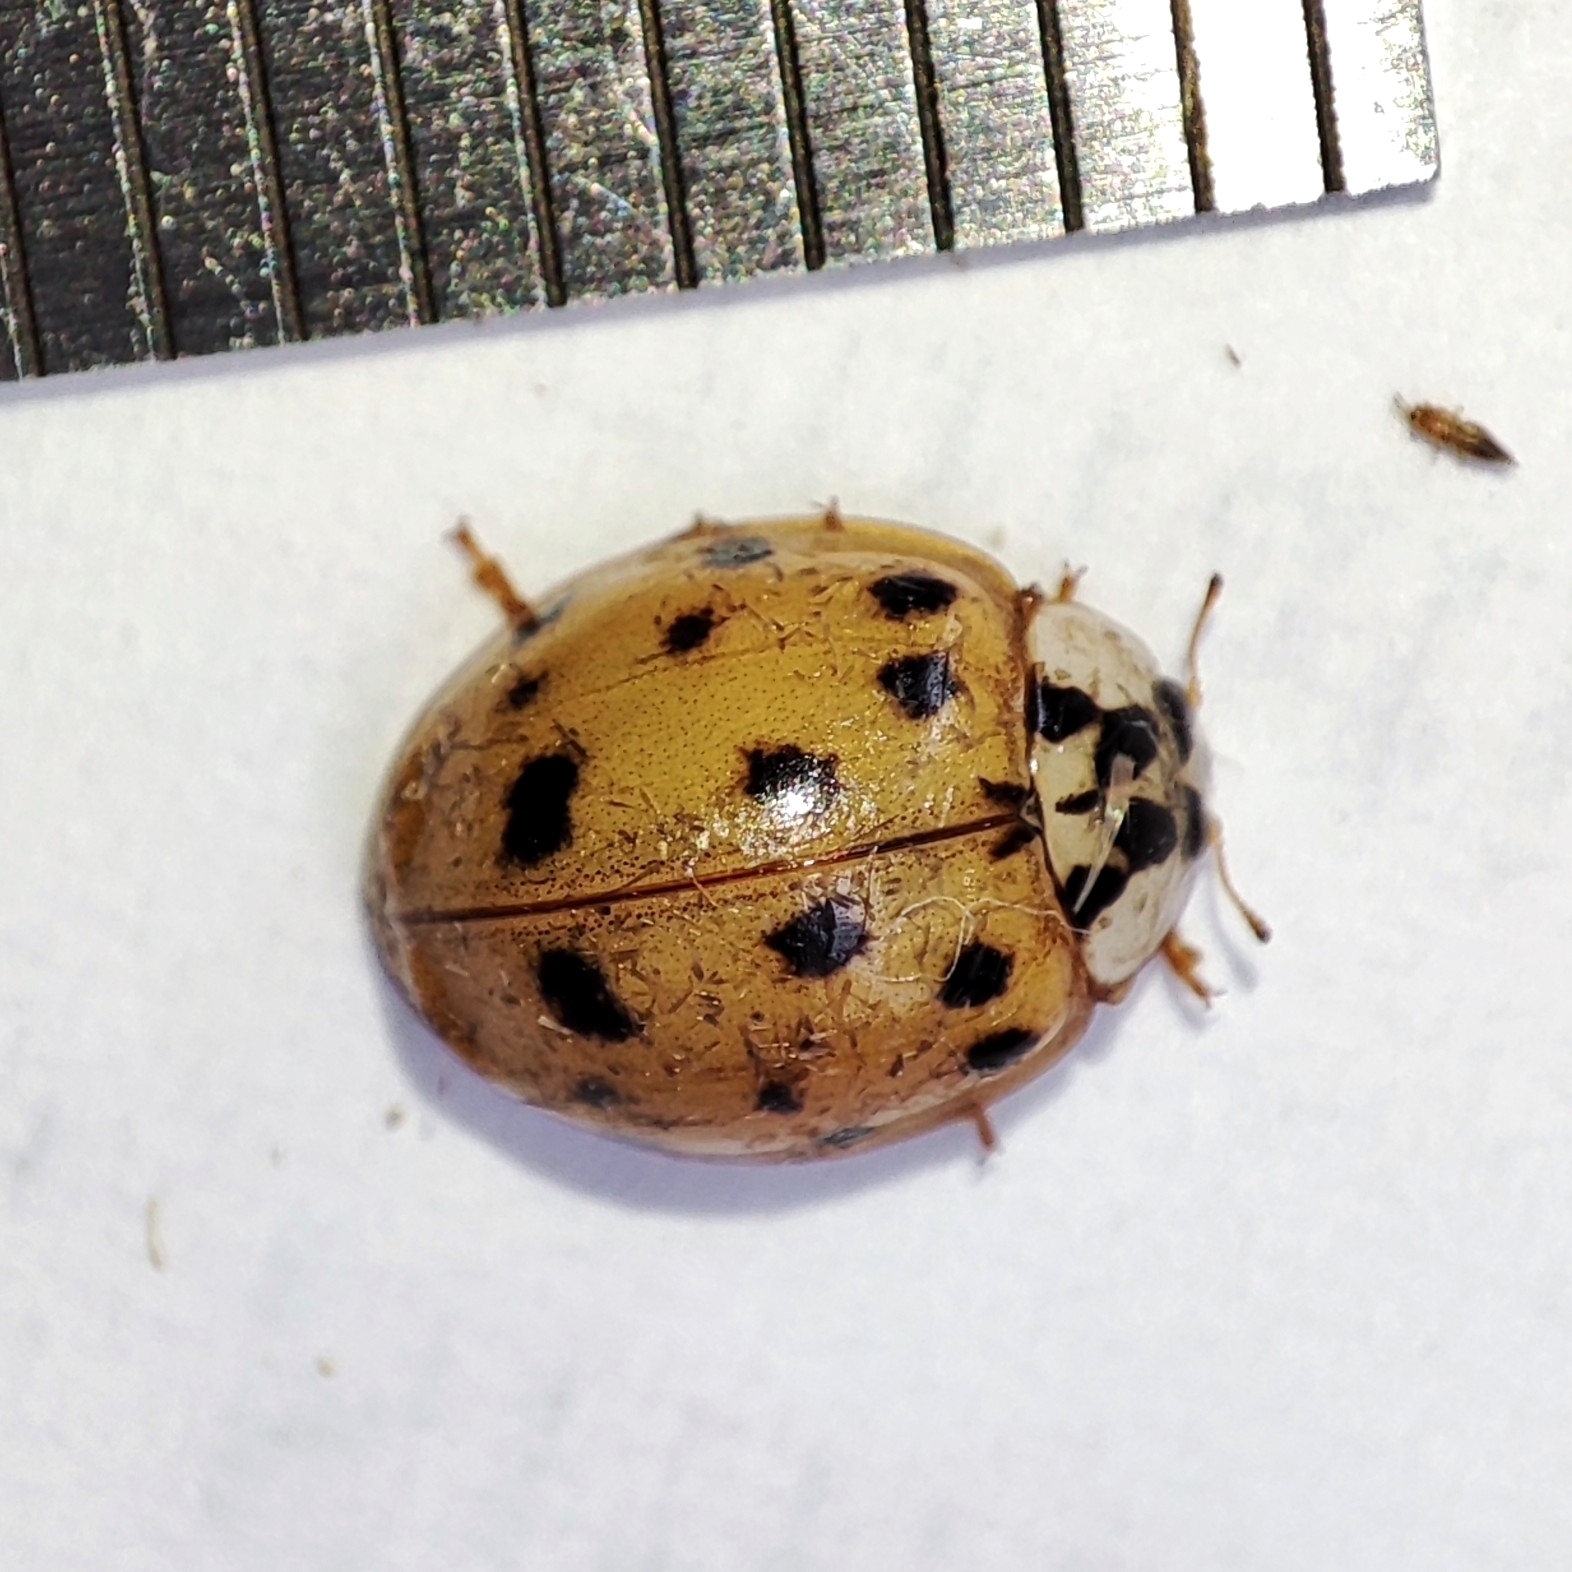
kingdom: Animalia
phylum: Arthropoda
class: Insecta
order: Coleoptera
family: Coccinellidae
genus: Harmonia
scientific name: Harmonia axyridis
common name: Harlequin ladybird
